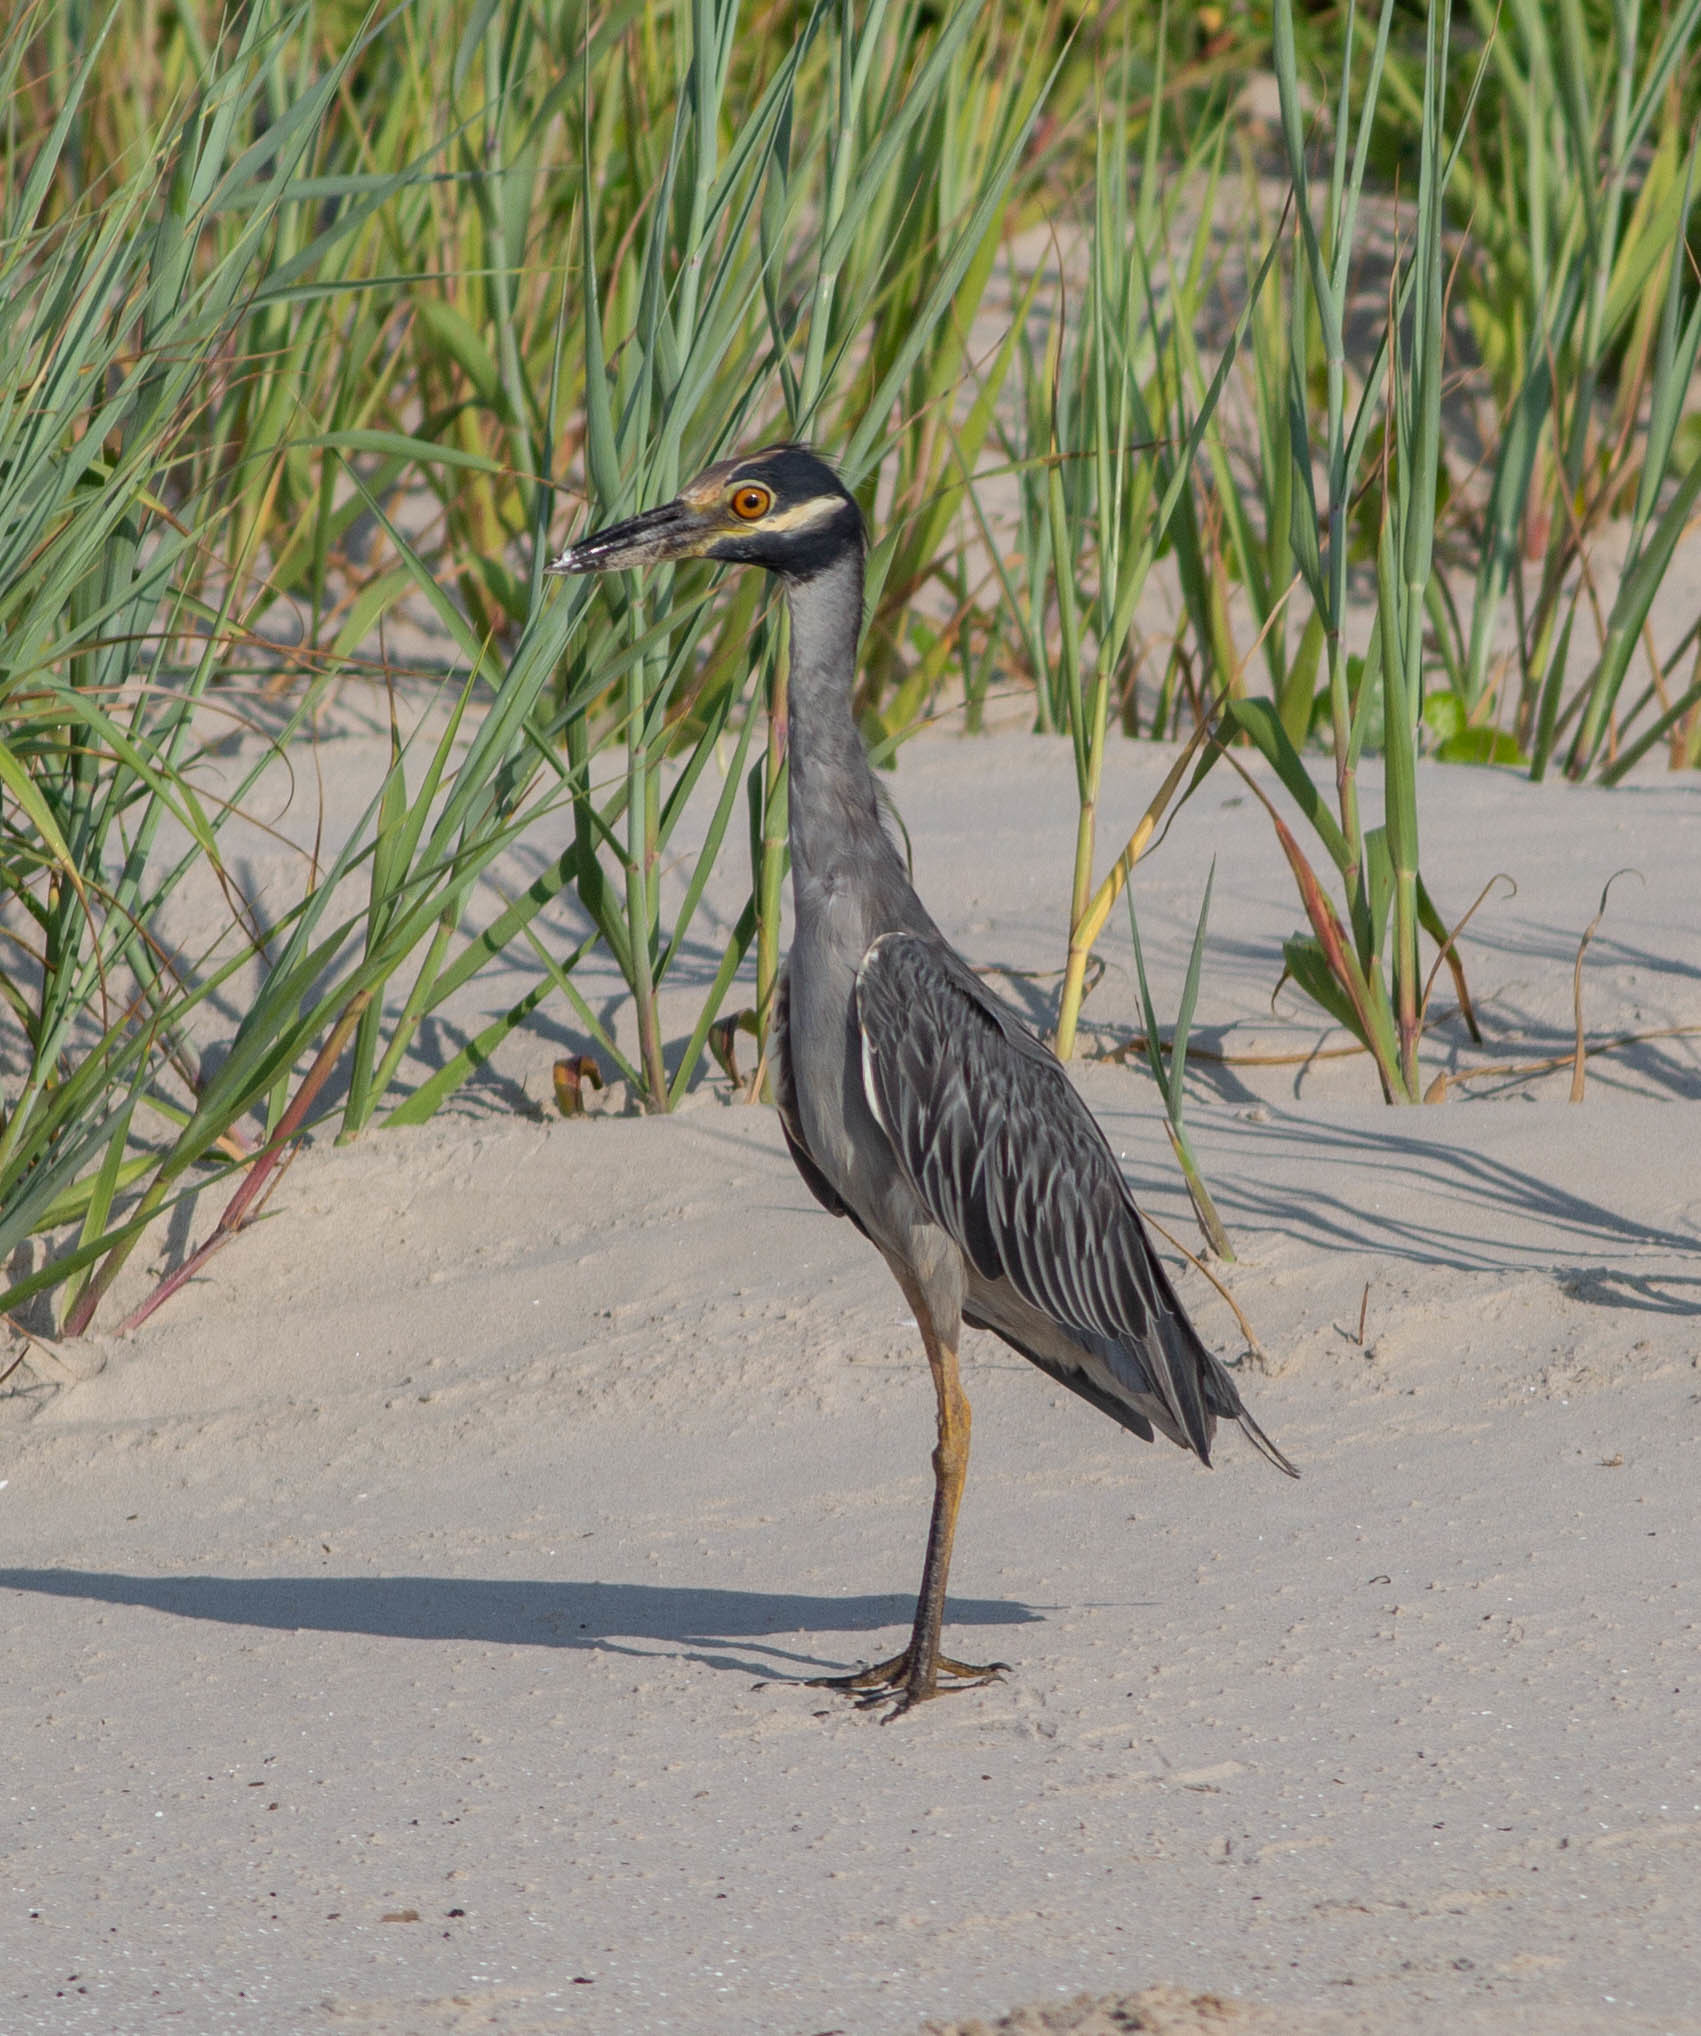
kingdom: Animalia
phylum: Chordata
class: Aves
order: Pelecaniformes
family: Ardeidae
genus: Nyctanassa
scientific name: Nyctanassa violacea
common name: Yellow-crowned night heron
